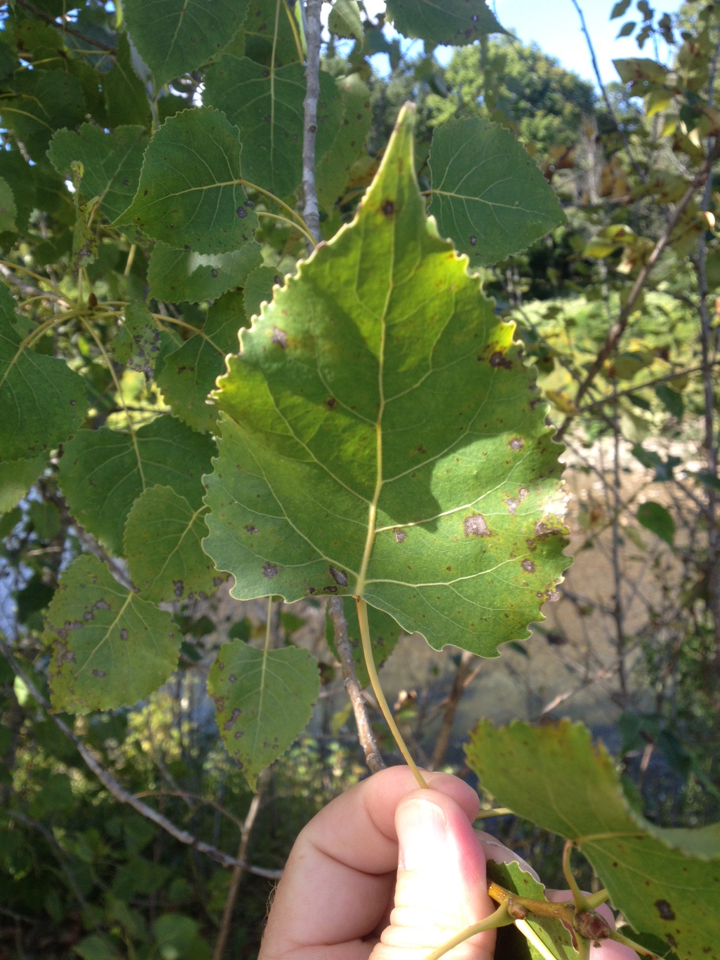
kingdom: Plantae
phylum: Tracheophyta
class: Magnoliopsida
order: Malpighiales
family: Salicaceae
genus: Populus
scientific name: Populus deltoides
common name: Eastern cottonwood
